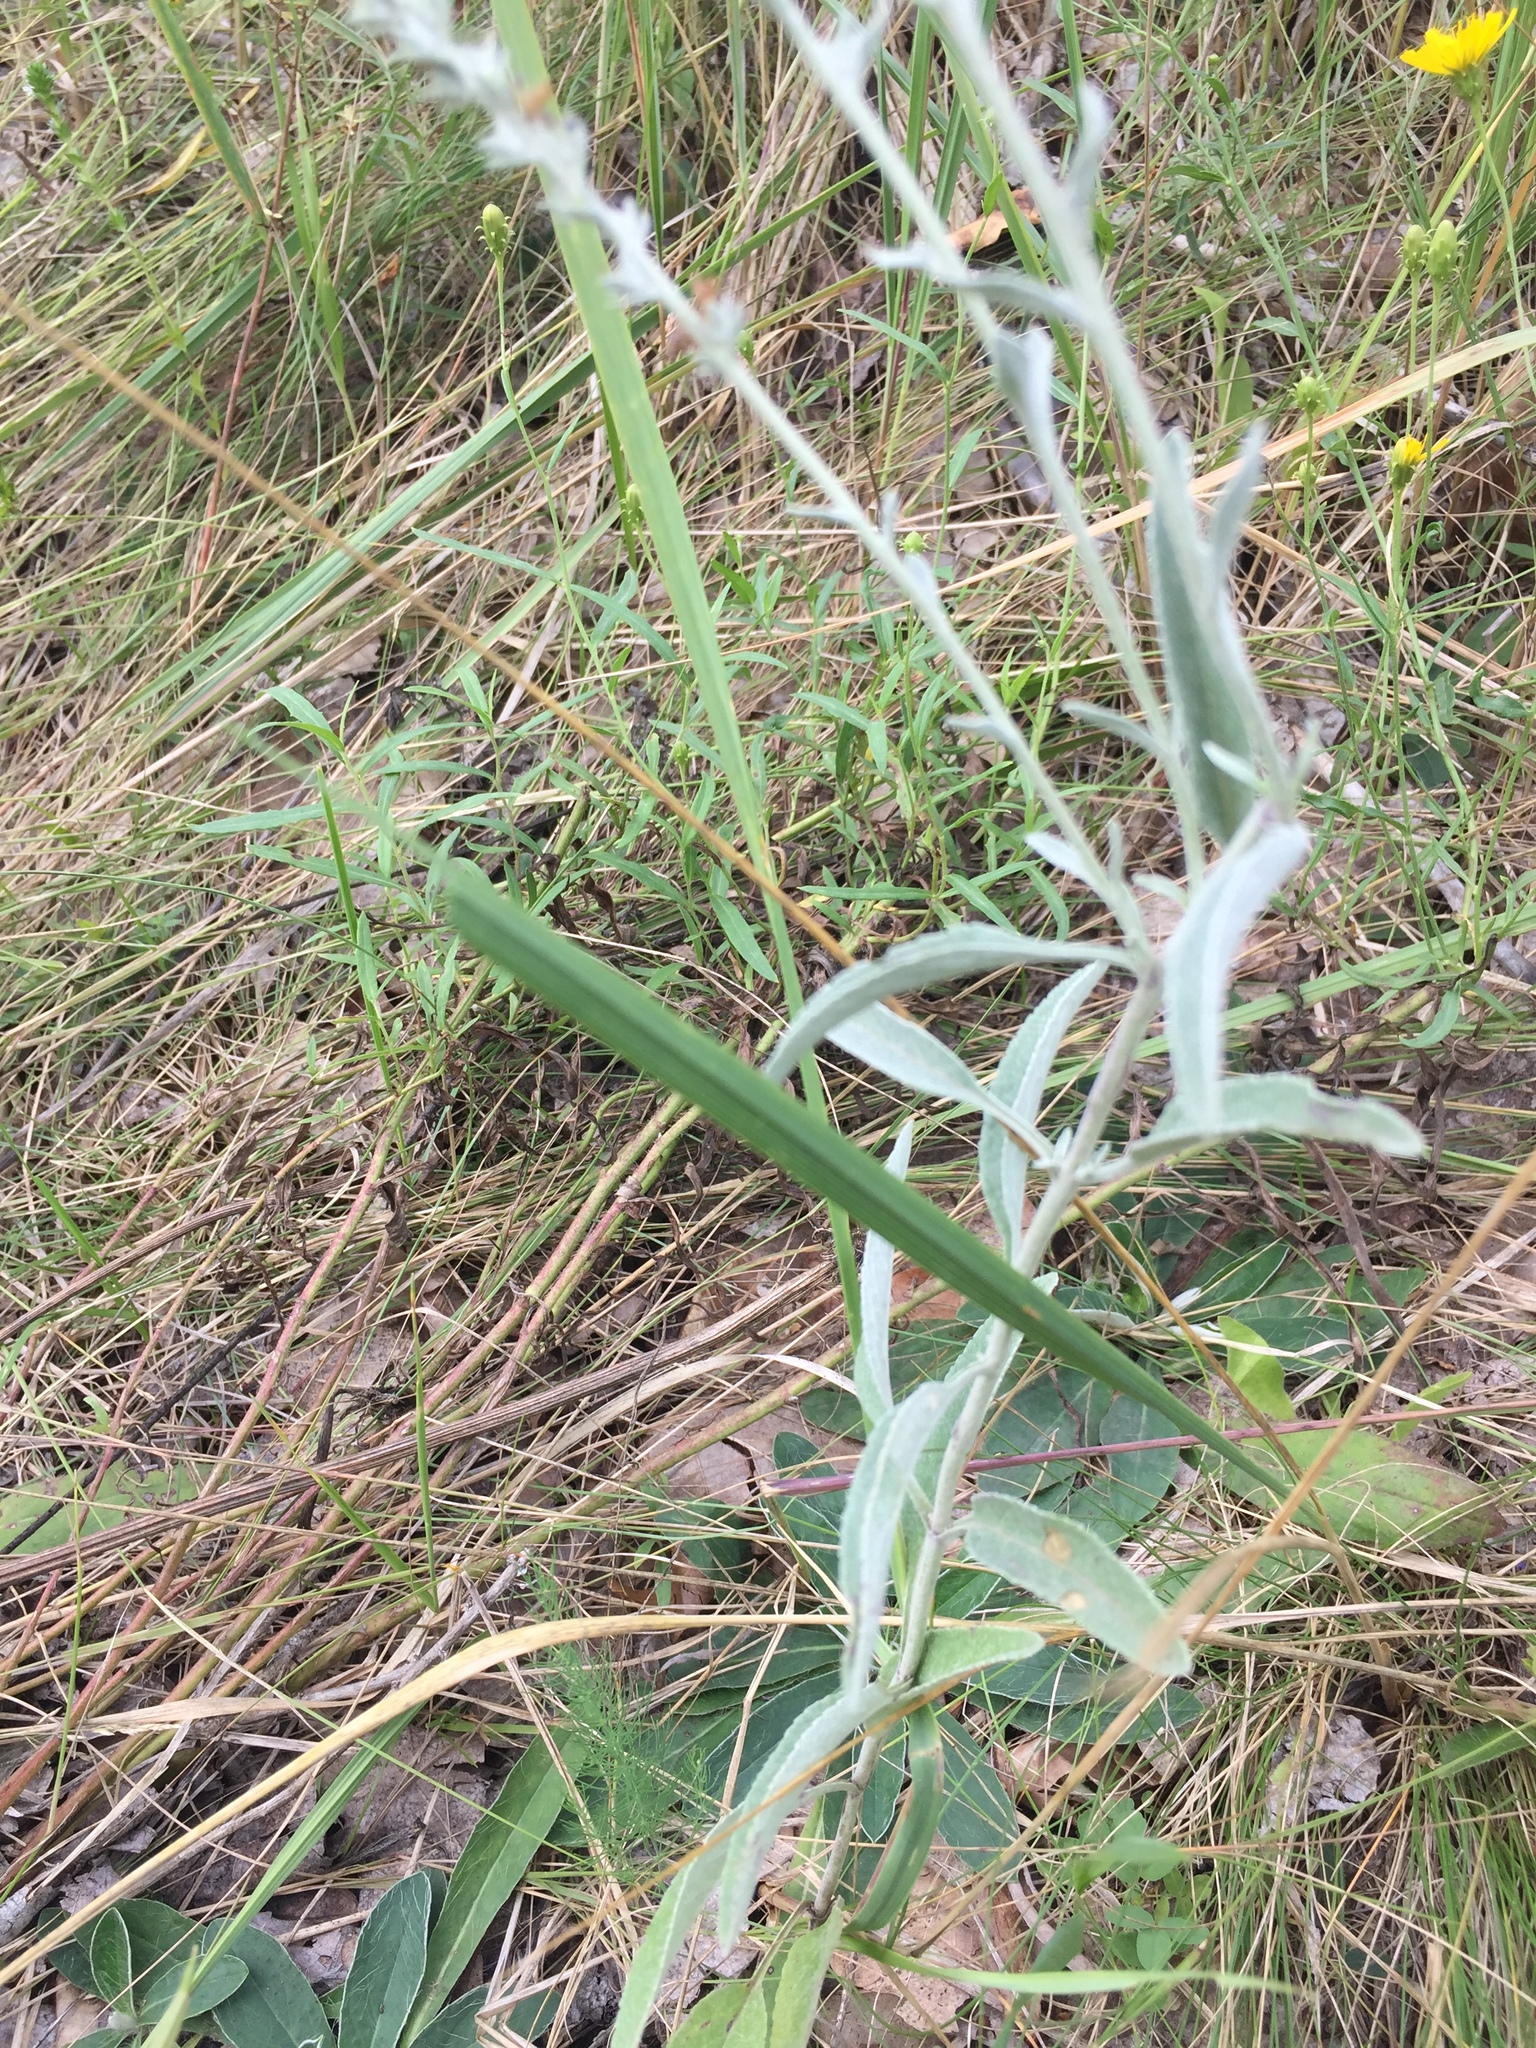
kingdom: Plantae
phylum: Tracheophyta
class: Magnoliopsida
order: Lamiales
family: Plantaginaceae
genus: Veronica
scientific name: Veronica incana
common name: Silver speedwell
